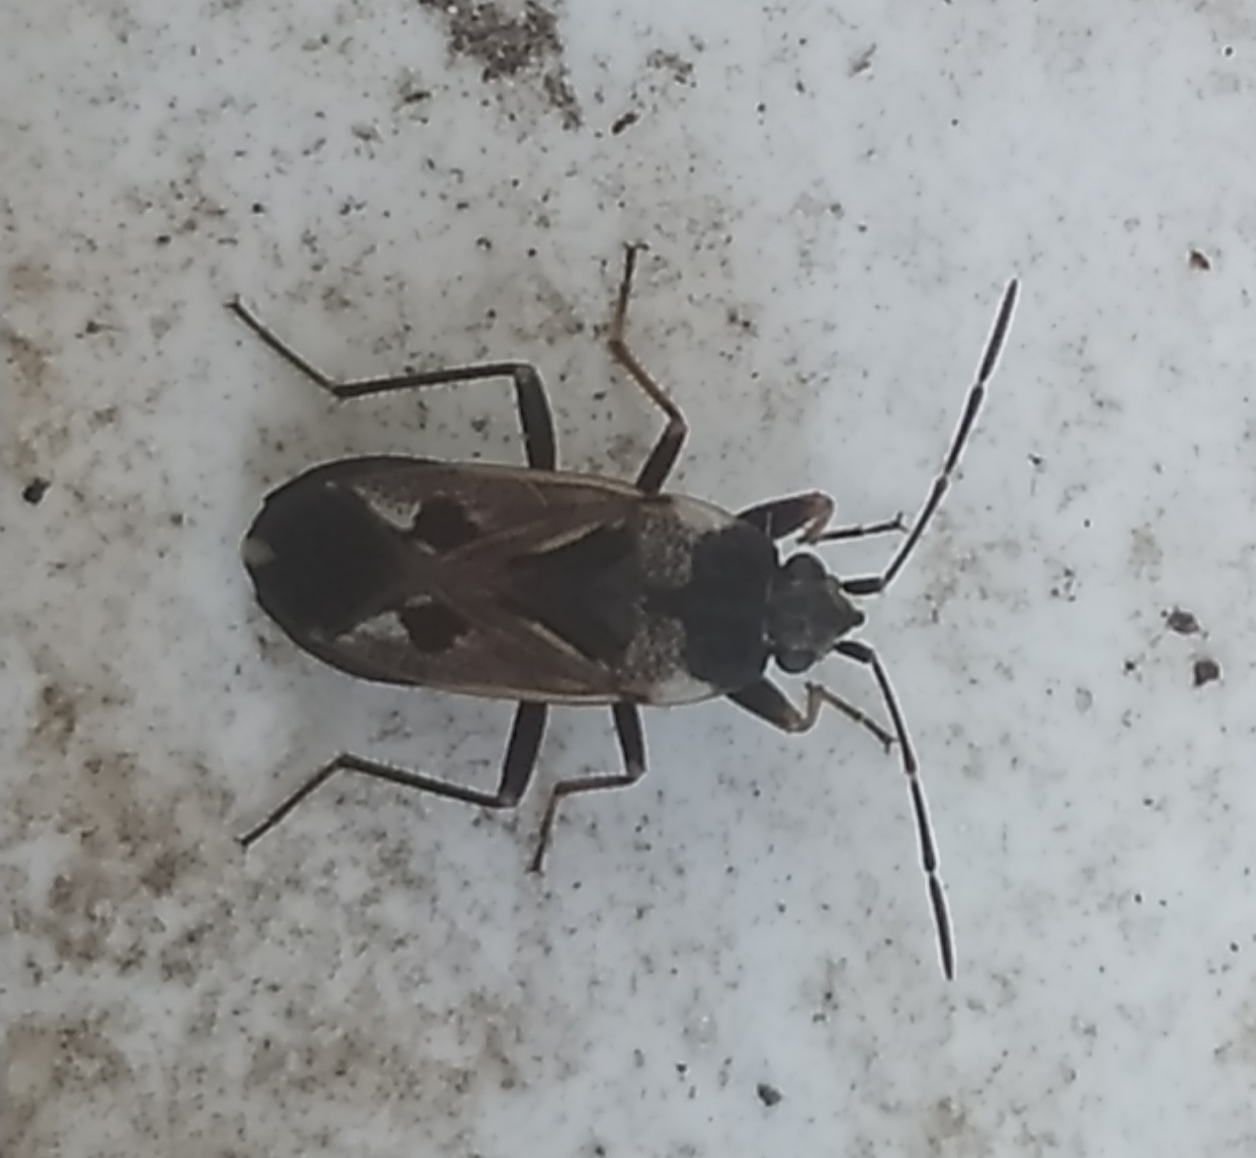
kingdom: Animalia
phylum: Arthropoda
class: Insecta
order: Hemiptera
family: Rhyparochromidae
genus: Rhyparochromus
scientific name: Rhyparochromus vulgaris
